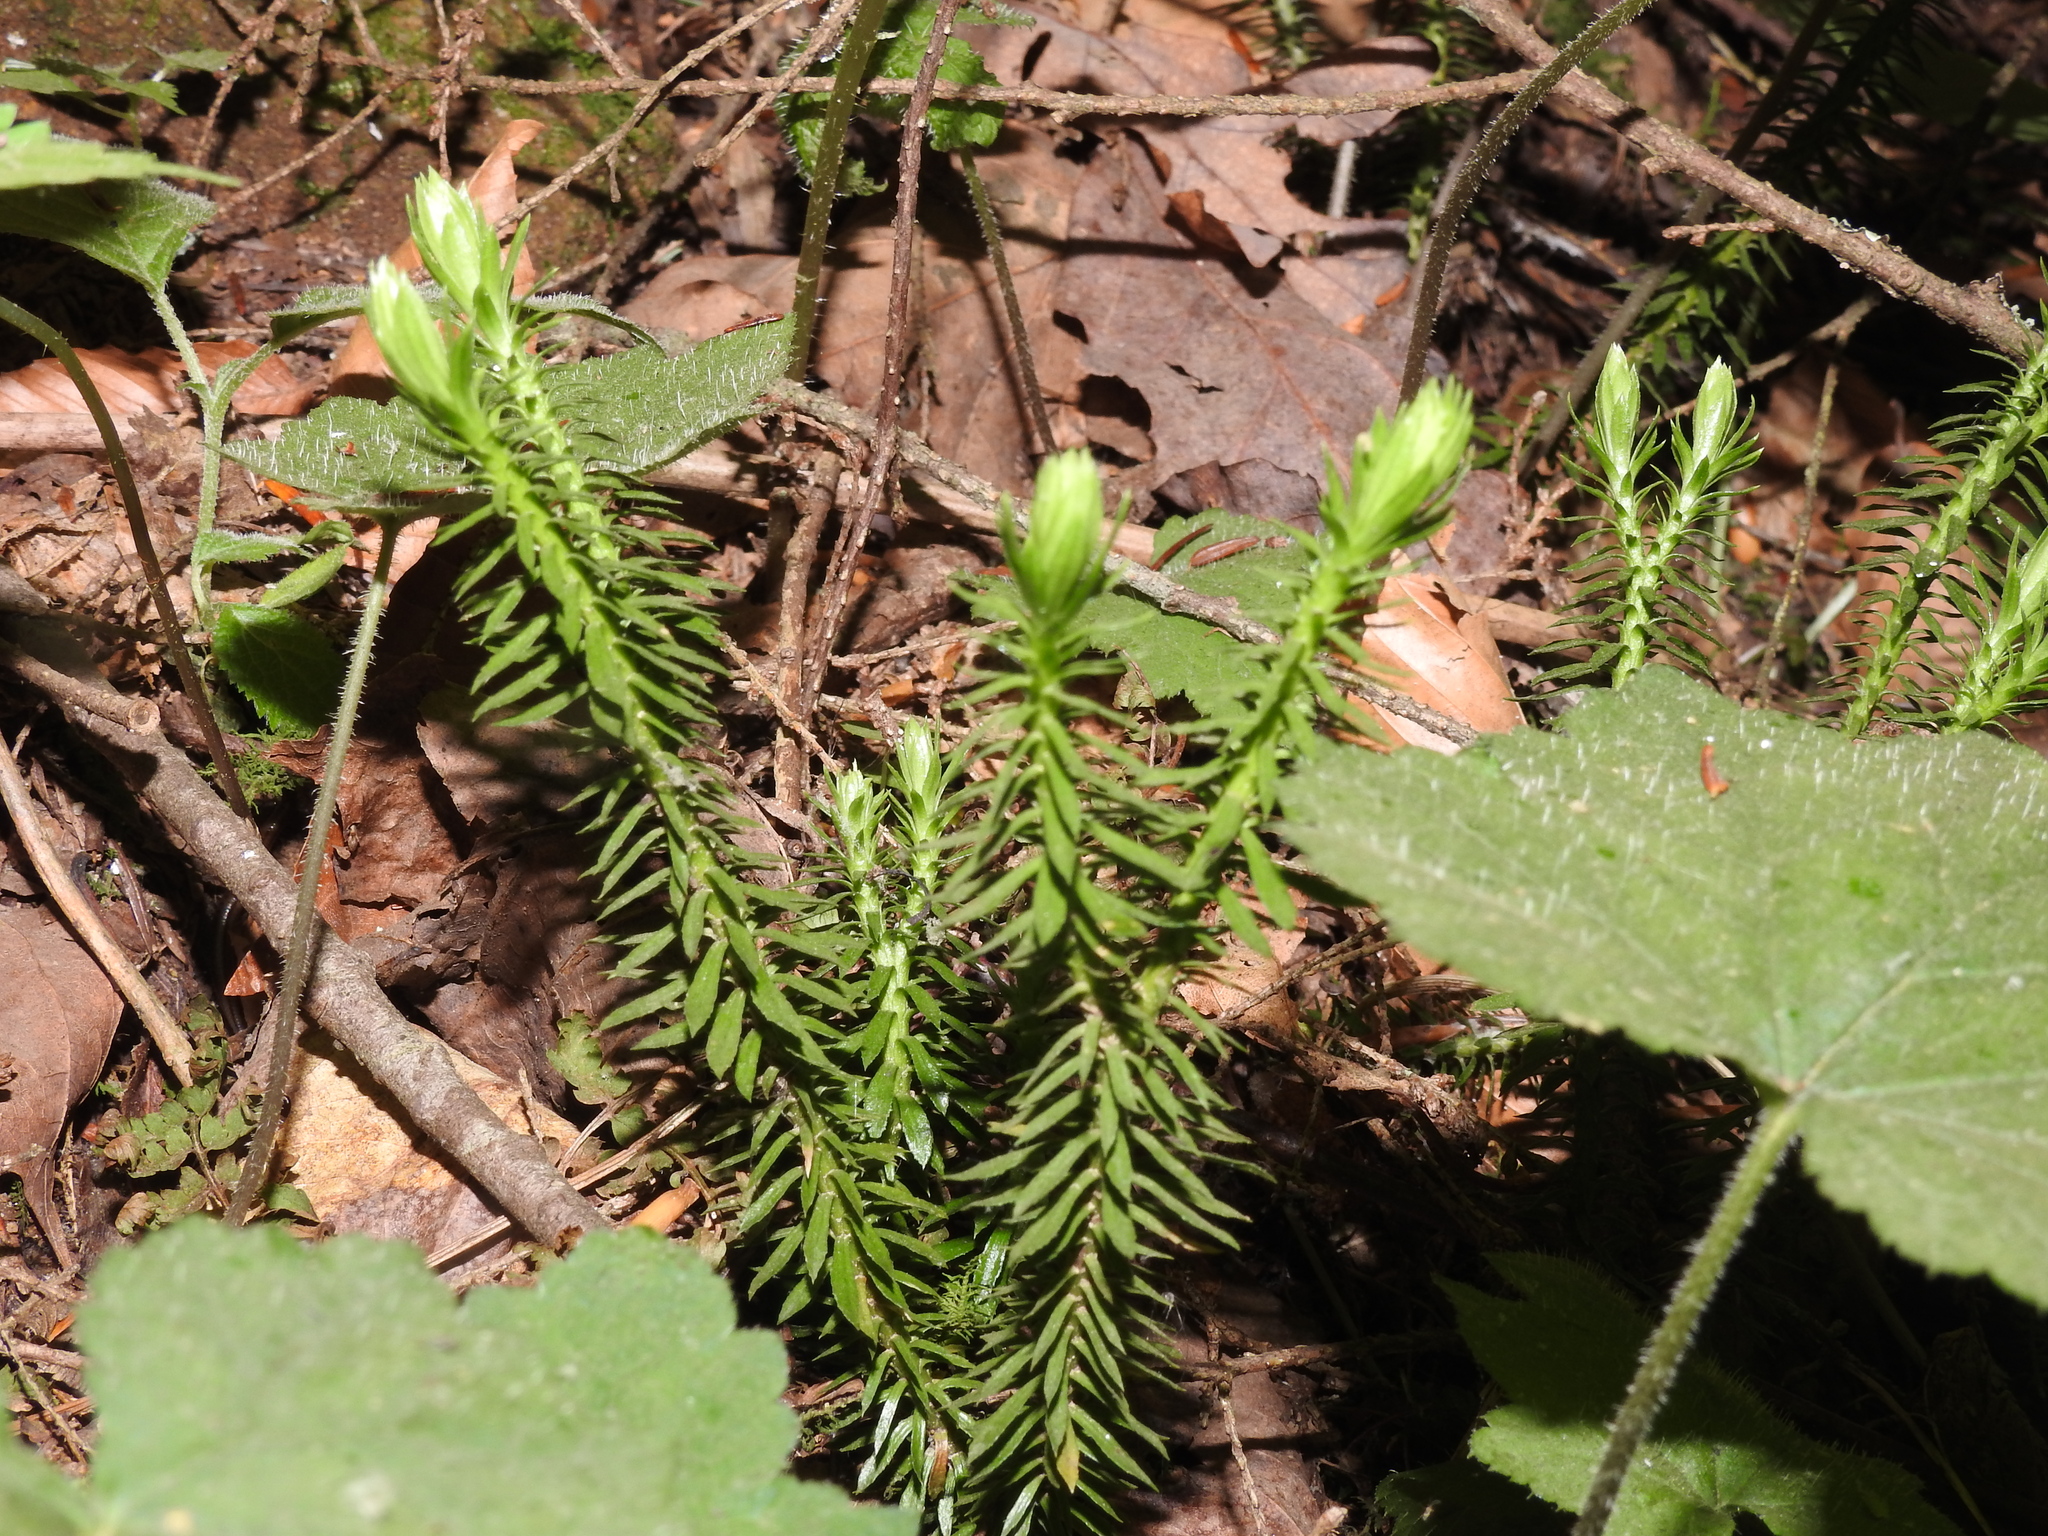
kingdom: Plantae
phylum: Tracheophyta
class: Lycopodiopsida
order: Lycopodiales
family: Lycopodiaceae
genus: Huperzia
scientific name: Huperzia lucidula
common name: Shining clubmoss
